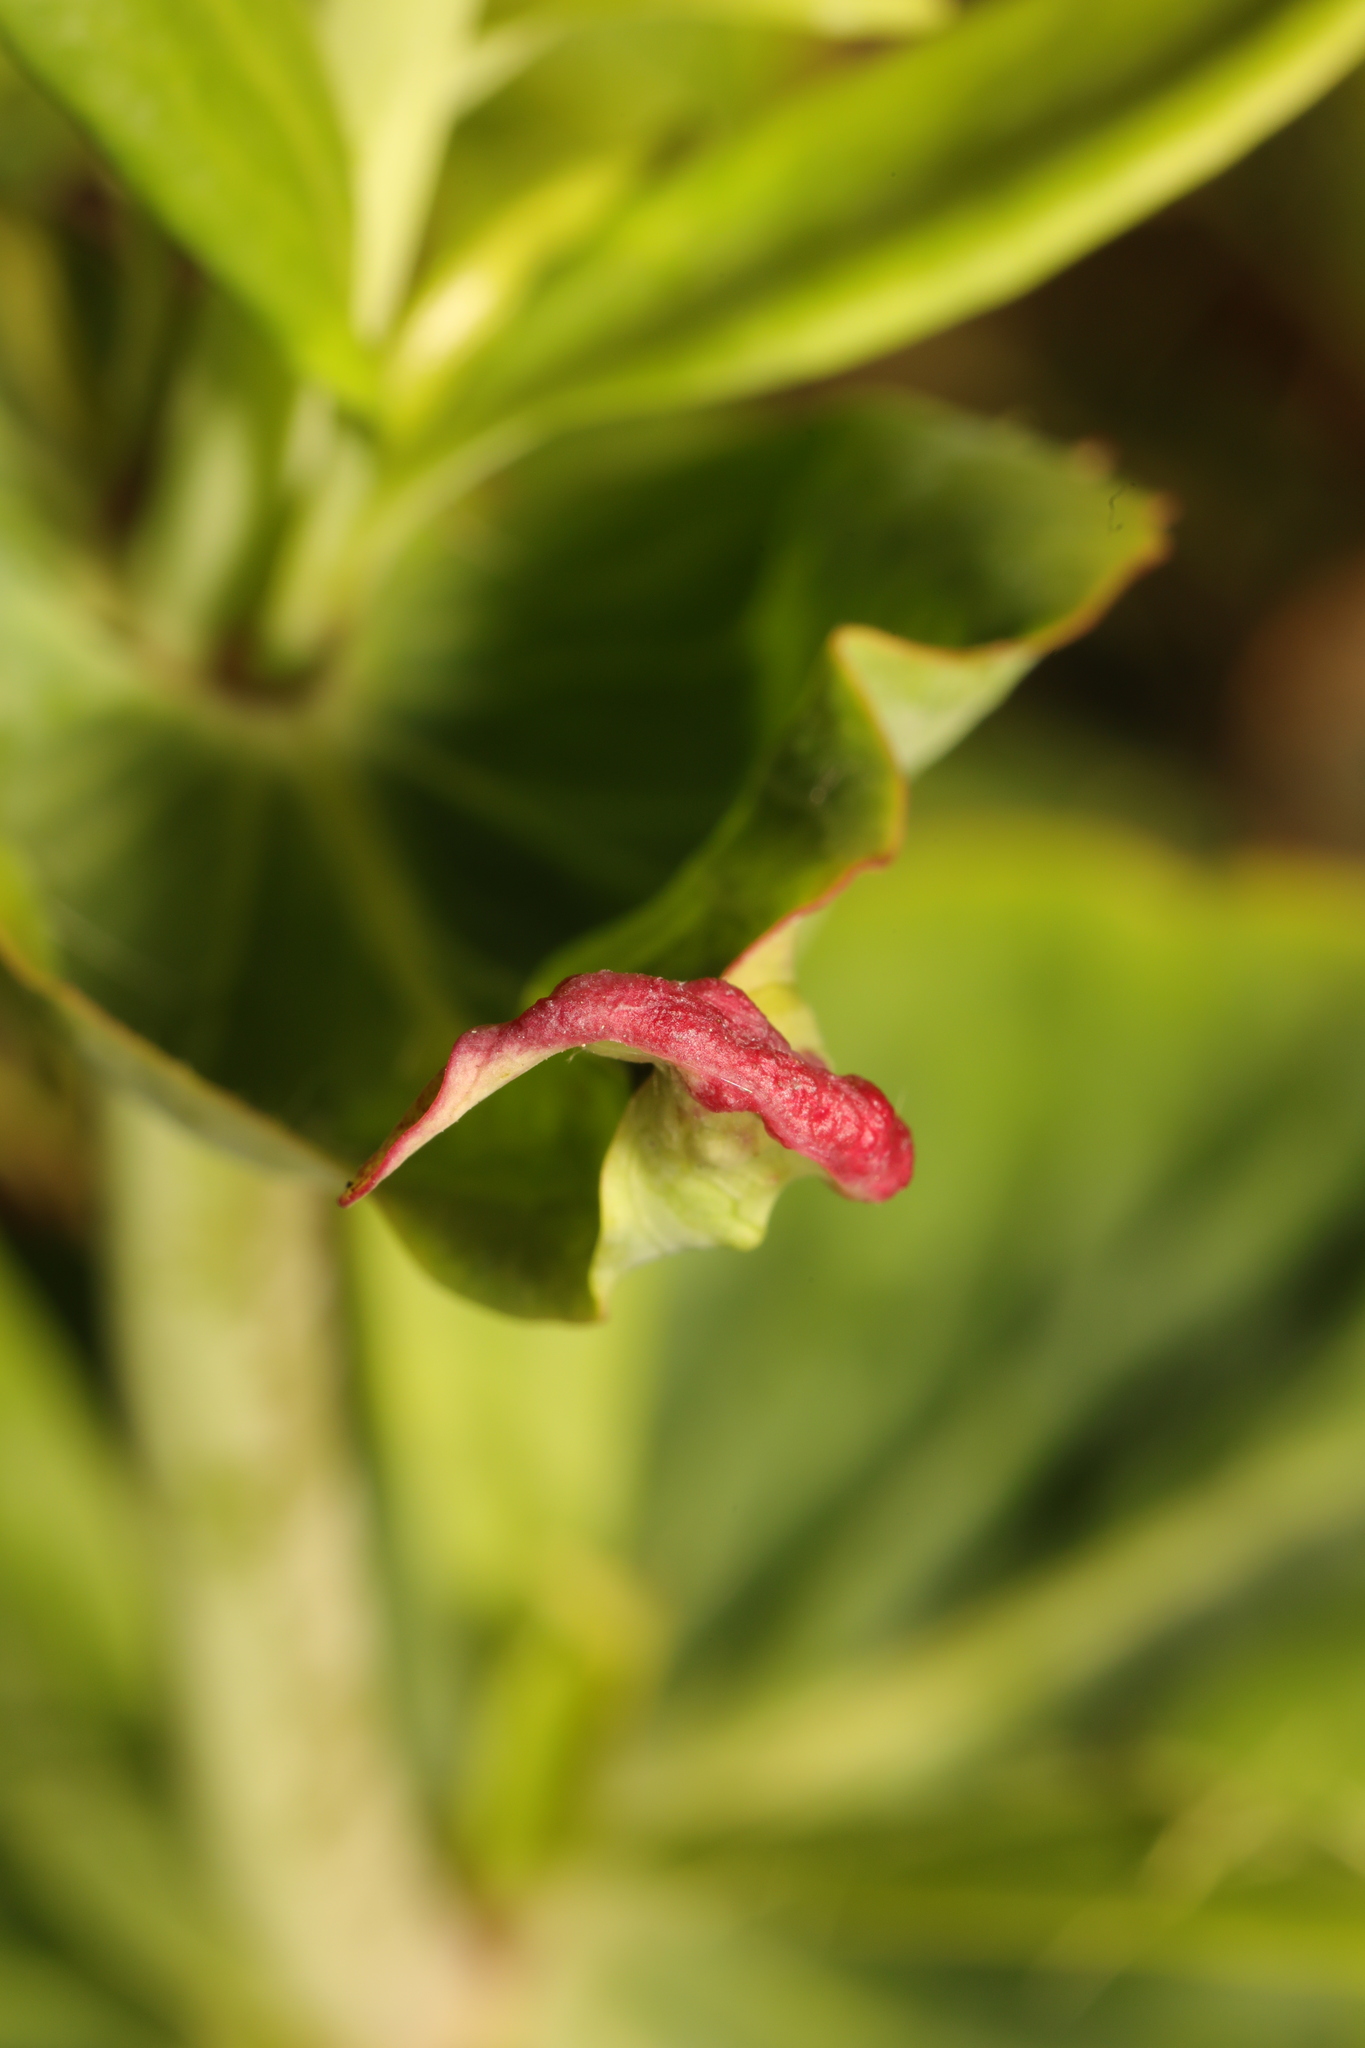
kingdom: Animalia
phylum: Arthropoda
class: Insecta
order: Hemiptera
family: Triozidae
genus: Trioza
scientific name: Trioza centranthi
